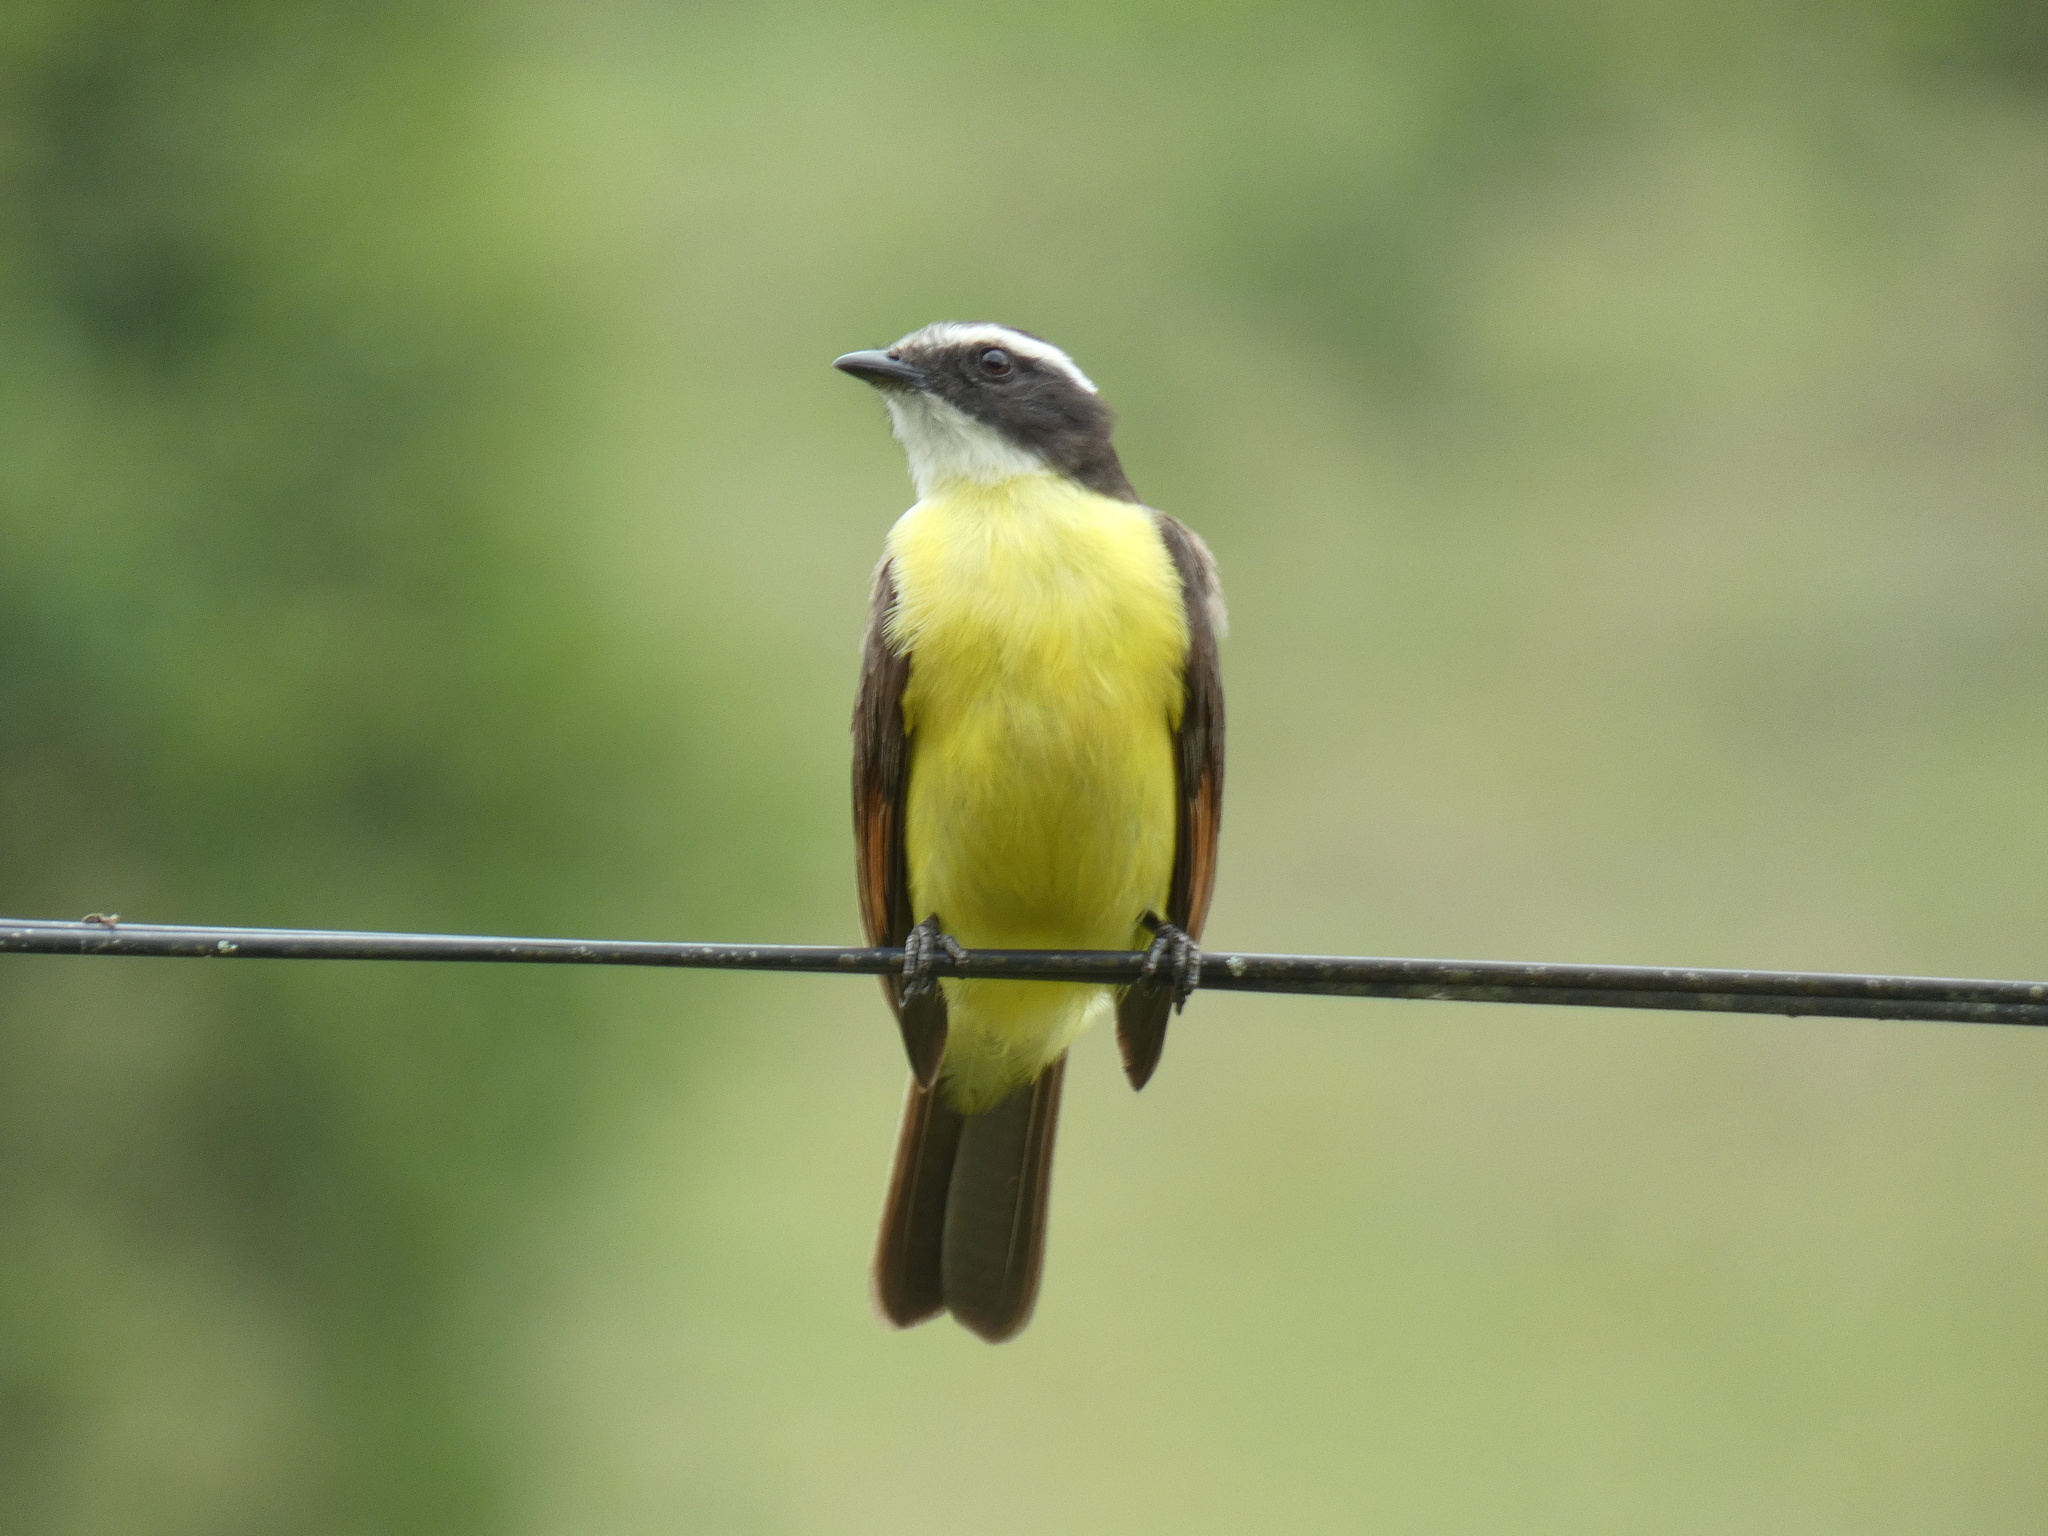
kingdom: Animalia
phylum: Chordata
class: Aves
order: Passeriformes
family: Tyrannidae
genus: Myiozetetes
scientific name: Myiozetetes cayanensis
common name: Rusty-margined flycatcher
